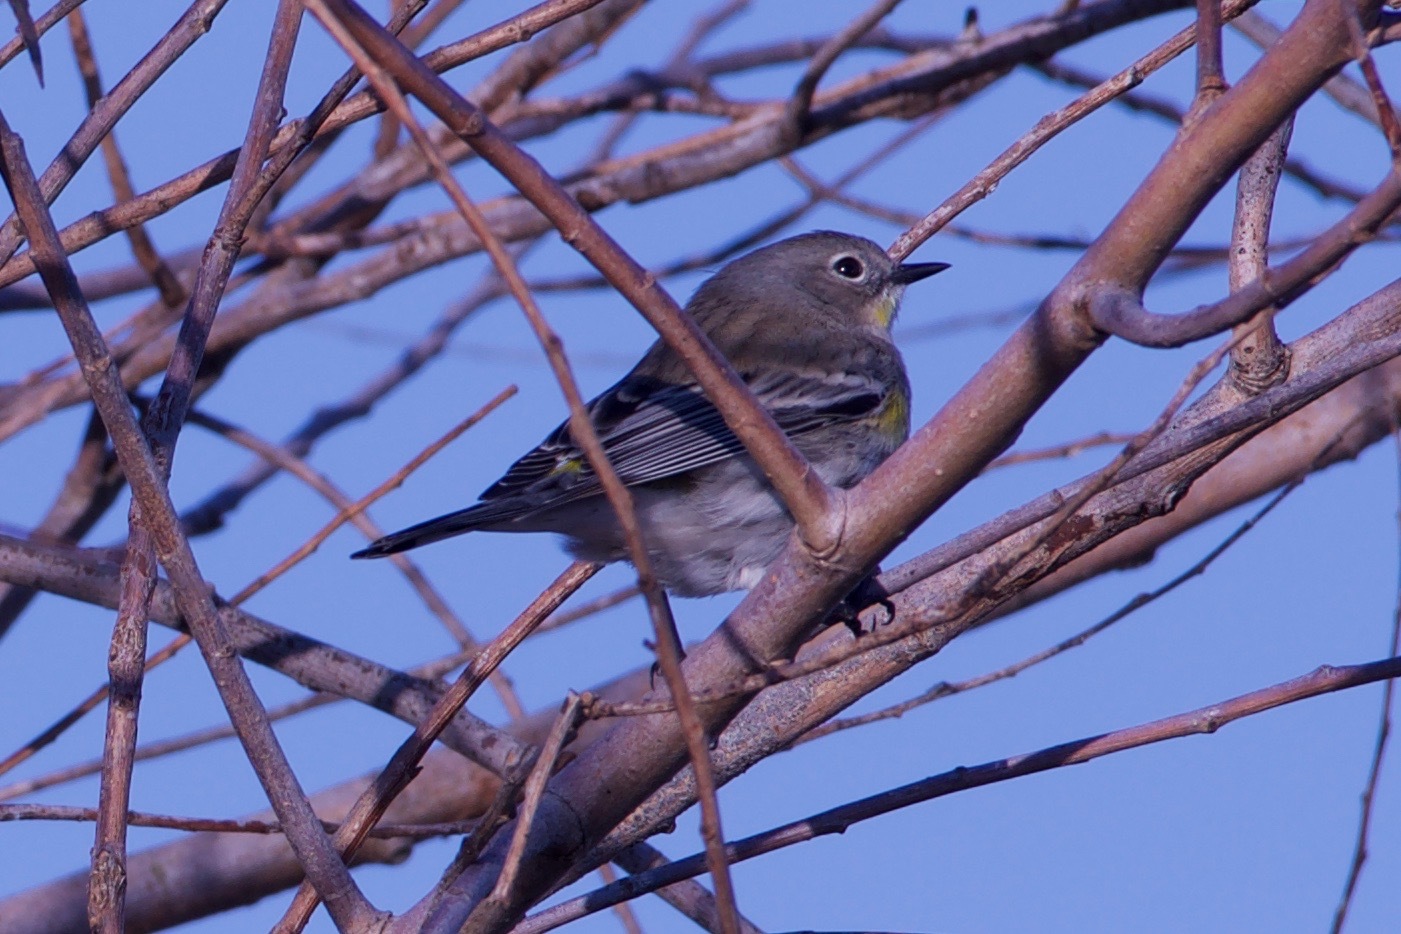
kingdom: Animalia
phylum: Chordata
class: Aves
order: Passeriformes
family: Parulidae
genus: Setophaga
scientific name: Setophaga coronata
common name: Myrtle warbler
